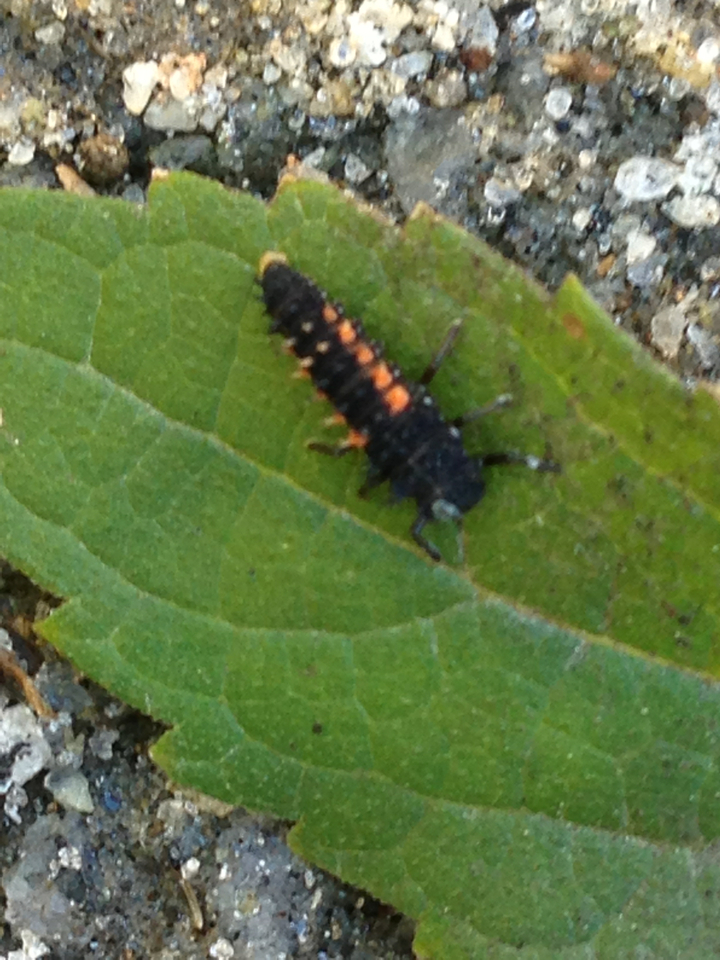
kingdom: Animalia
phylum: Arthropoda
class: Insecta
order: Coleoptera
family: Coccinellidae
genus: Harmonia
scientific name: Harmonia axyridis
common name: Harlequin ladybird
